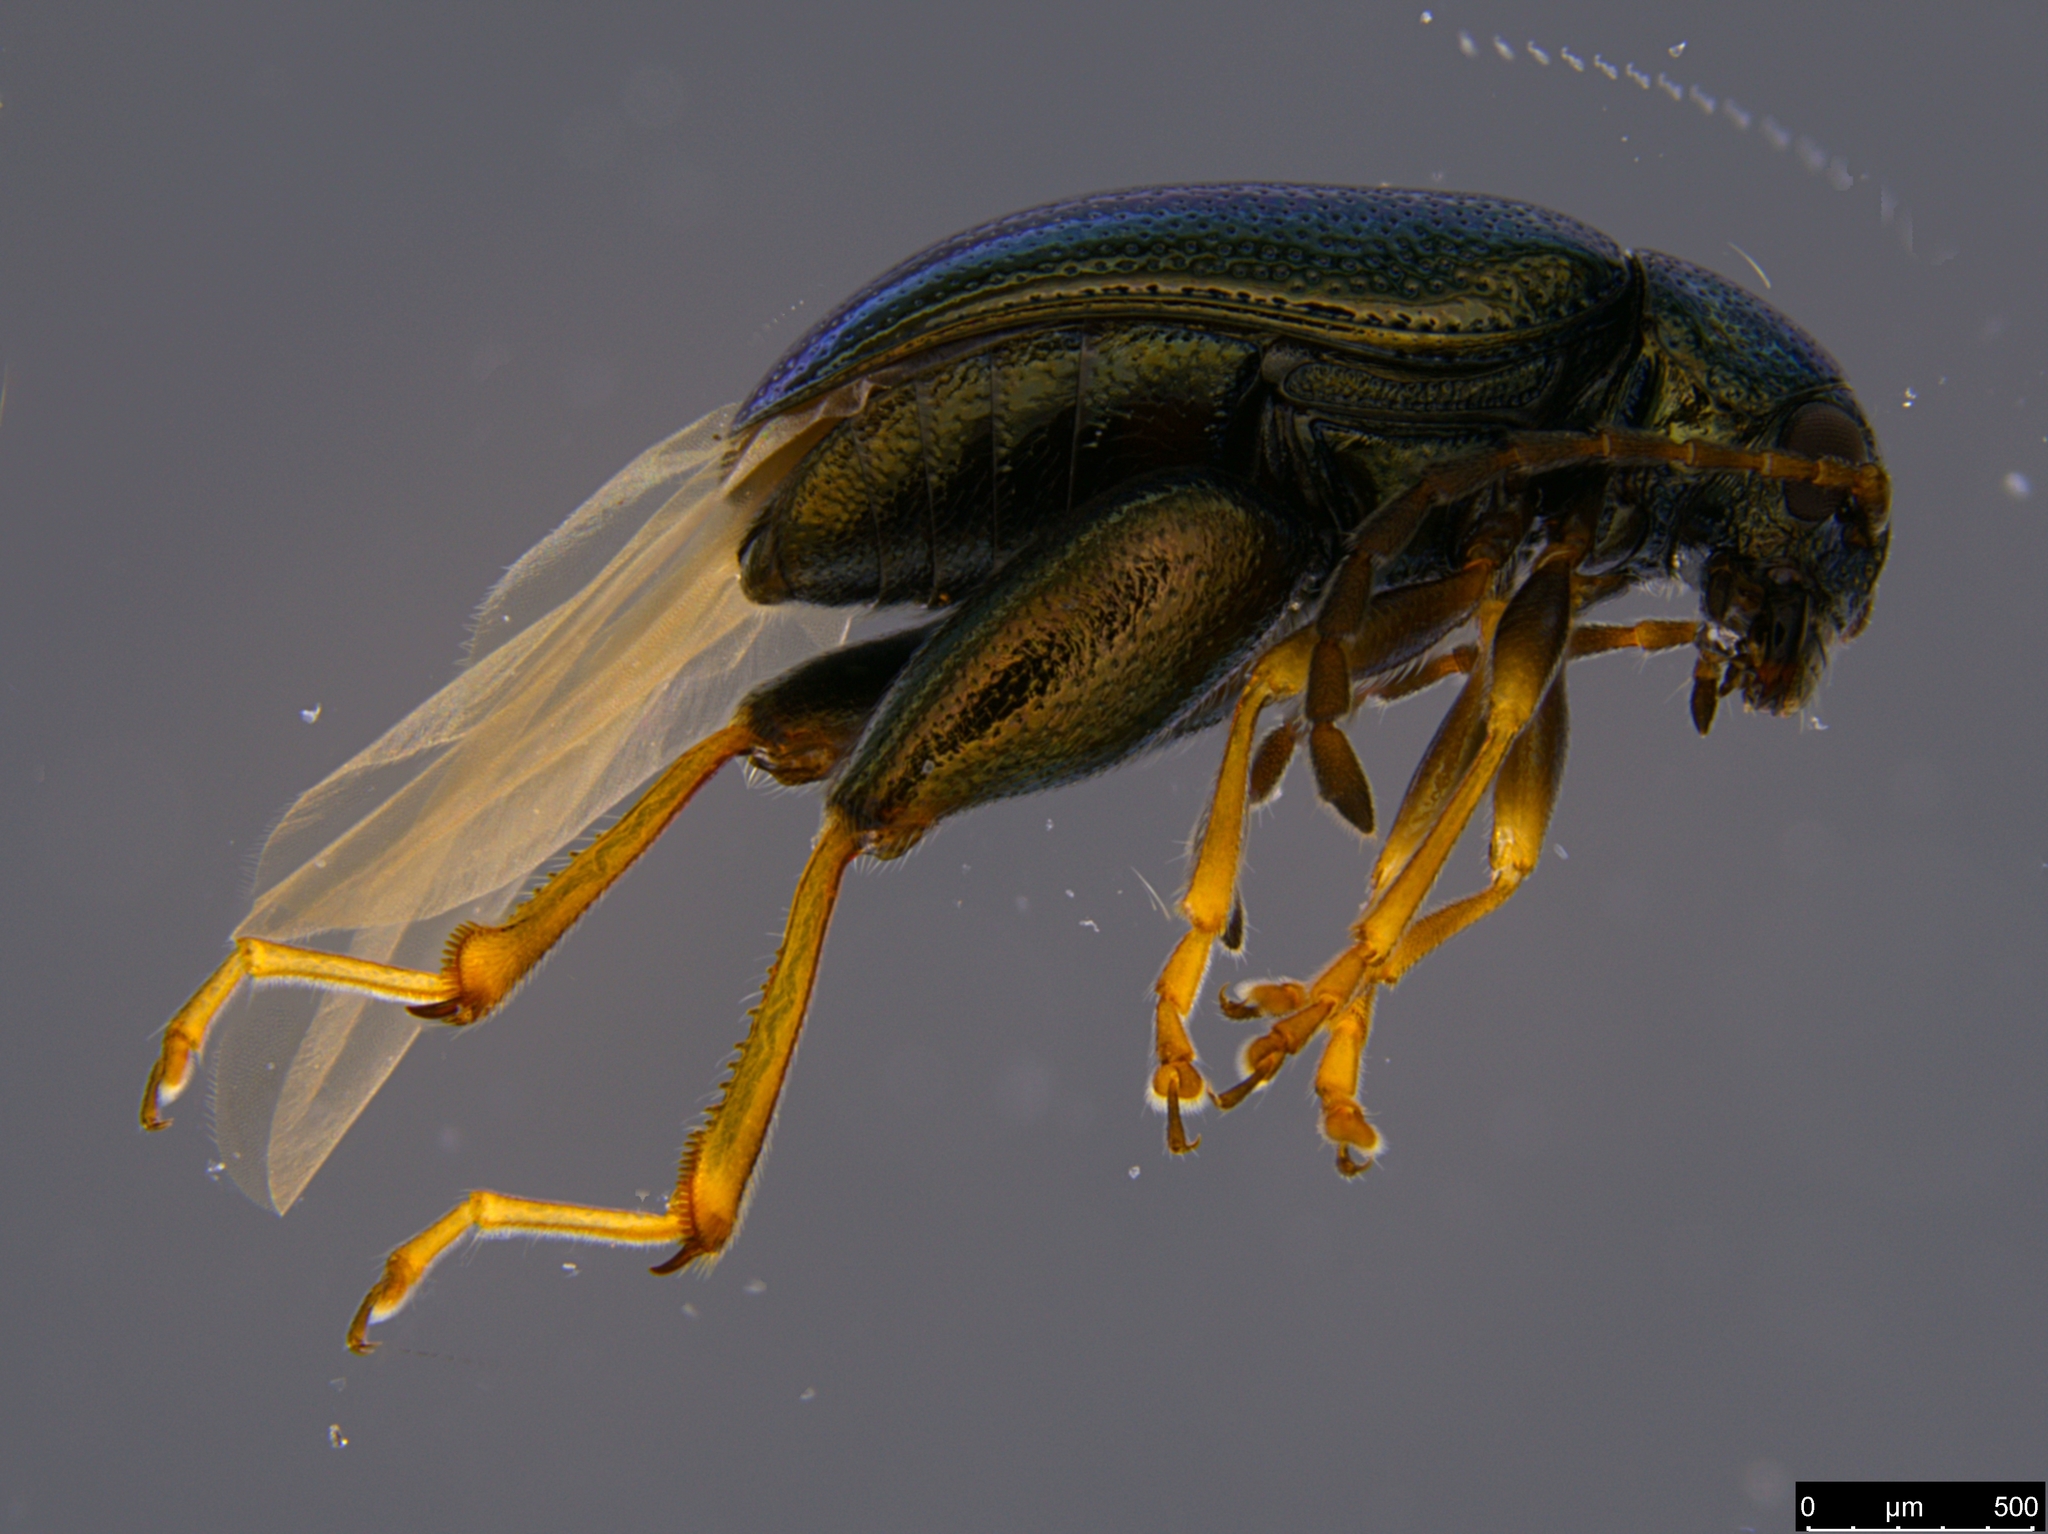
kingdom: Animalia
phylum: Arthropoda
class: Insecta
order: Coleoptera
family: Chrysomelidae
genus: Longitarsus
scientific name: Longitarsus echii
